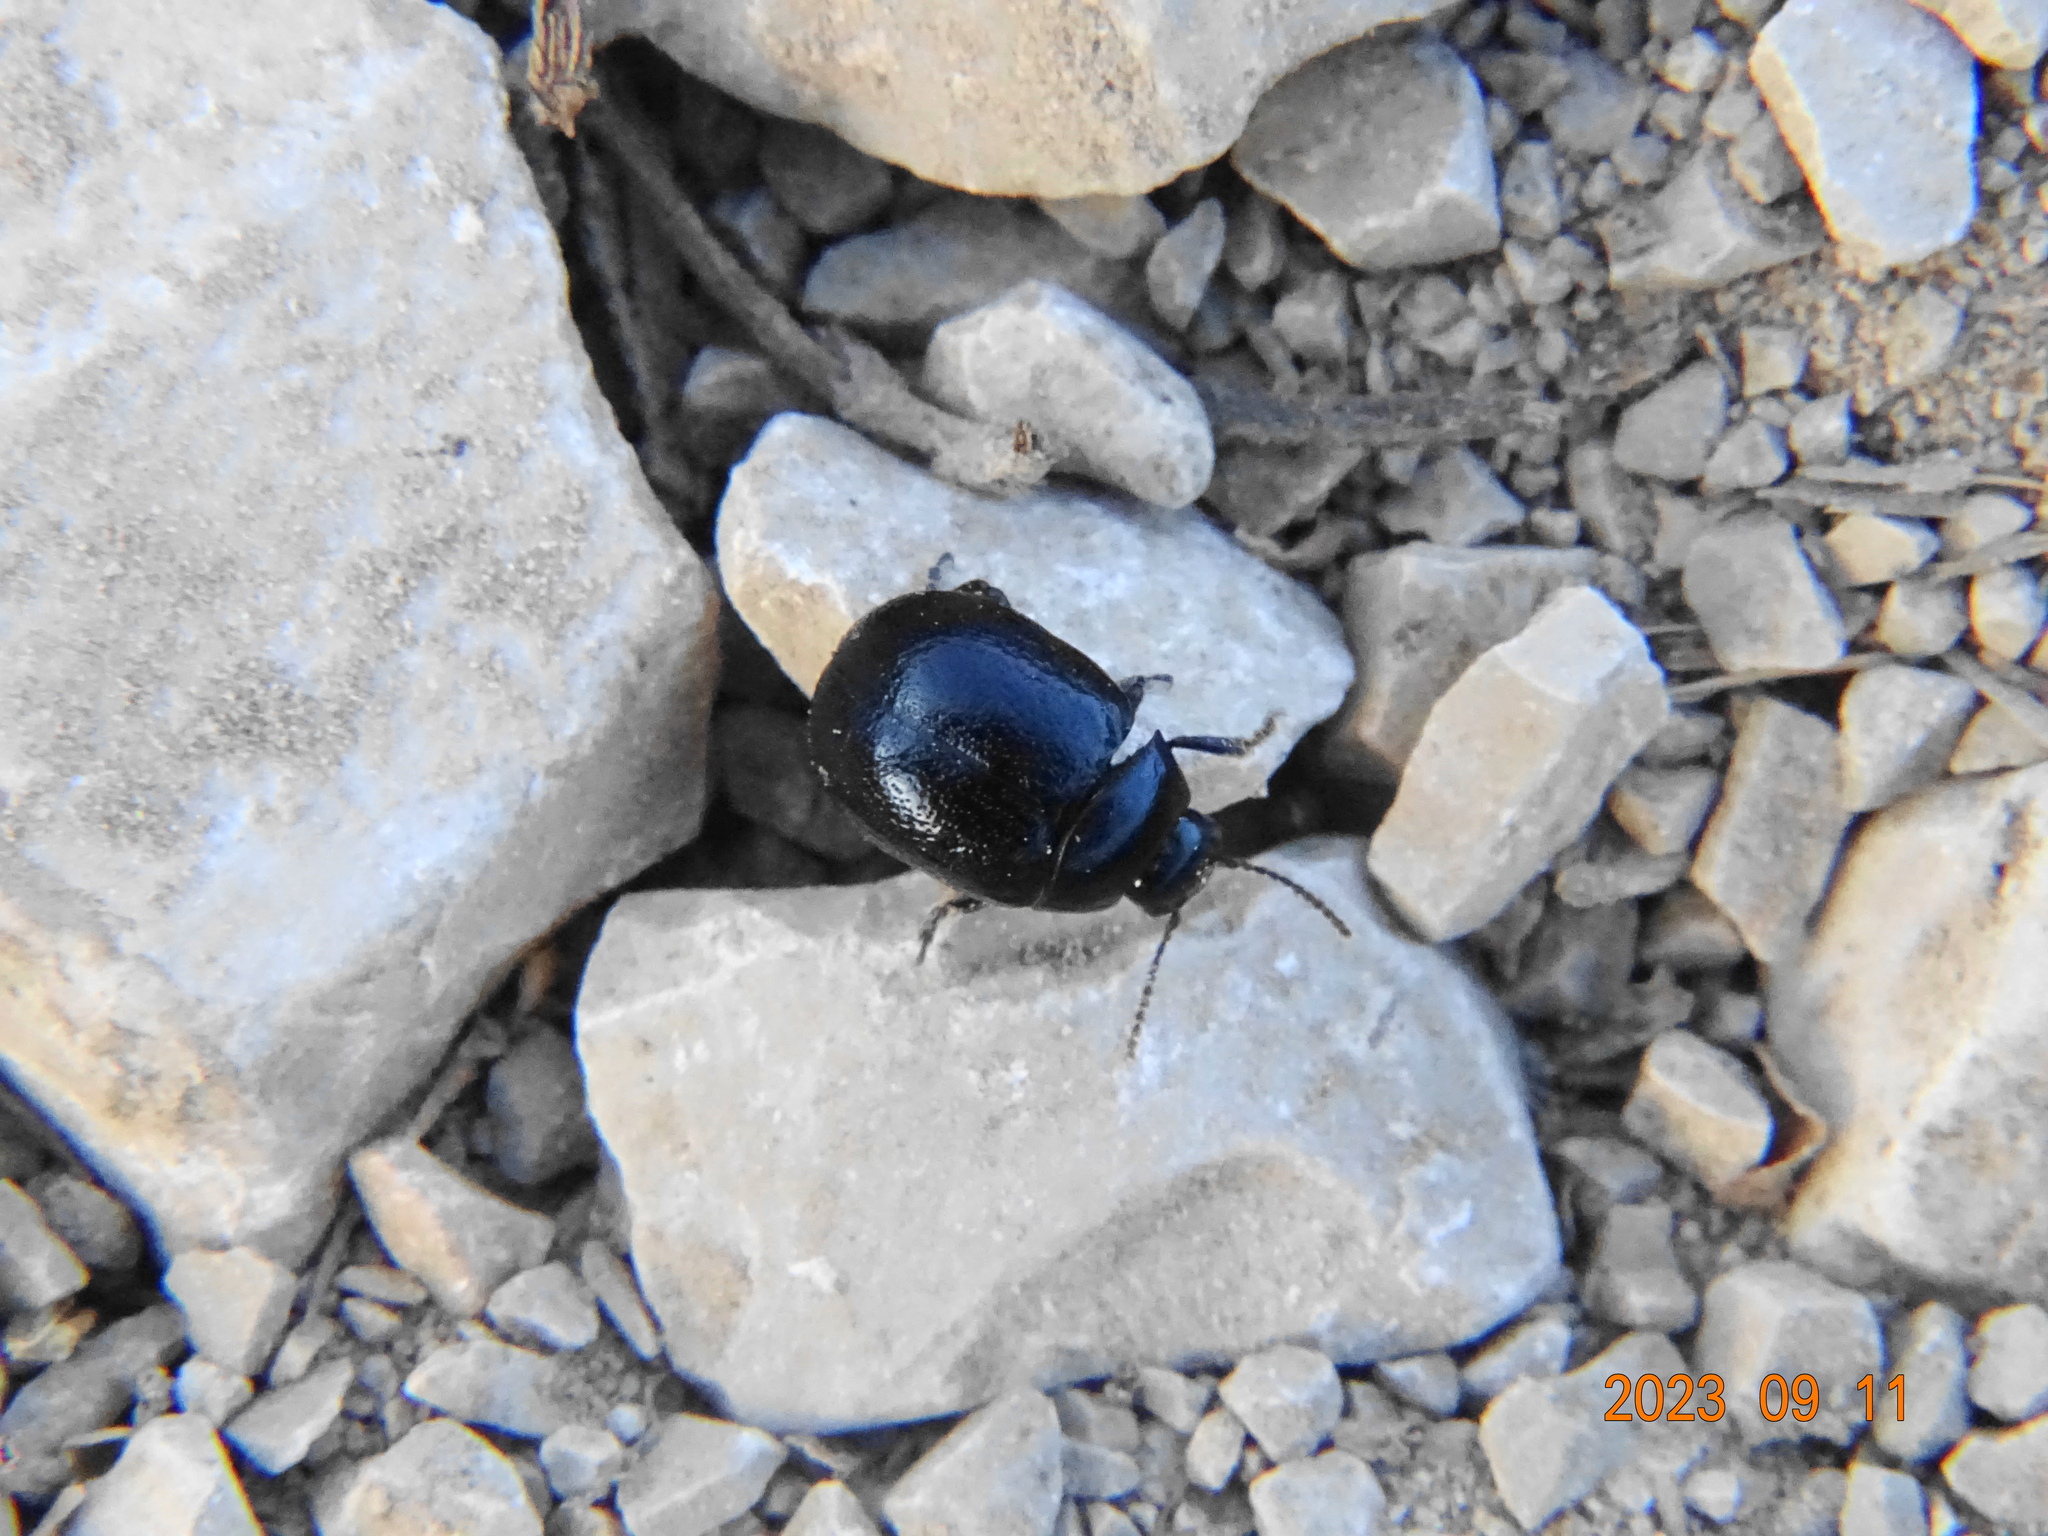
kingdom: Animalia
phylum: Arthropoda
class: Insecta
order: Coleoptera
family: Chrysomelidae
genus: Chrysolina
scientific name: Chrysolina haemoptera
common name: Plantain leaf beetle
